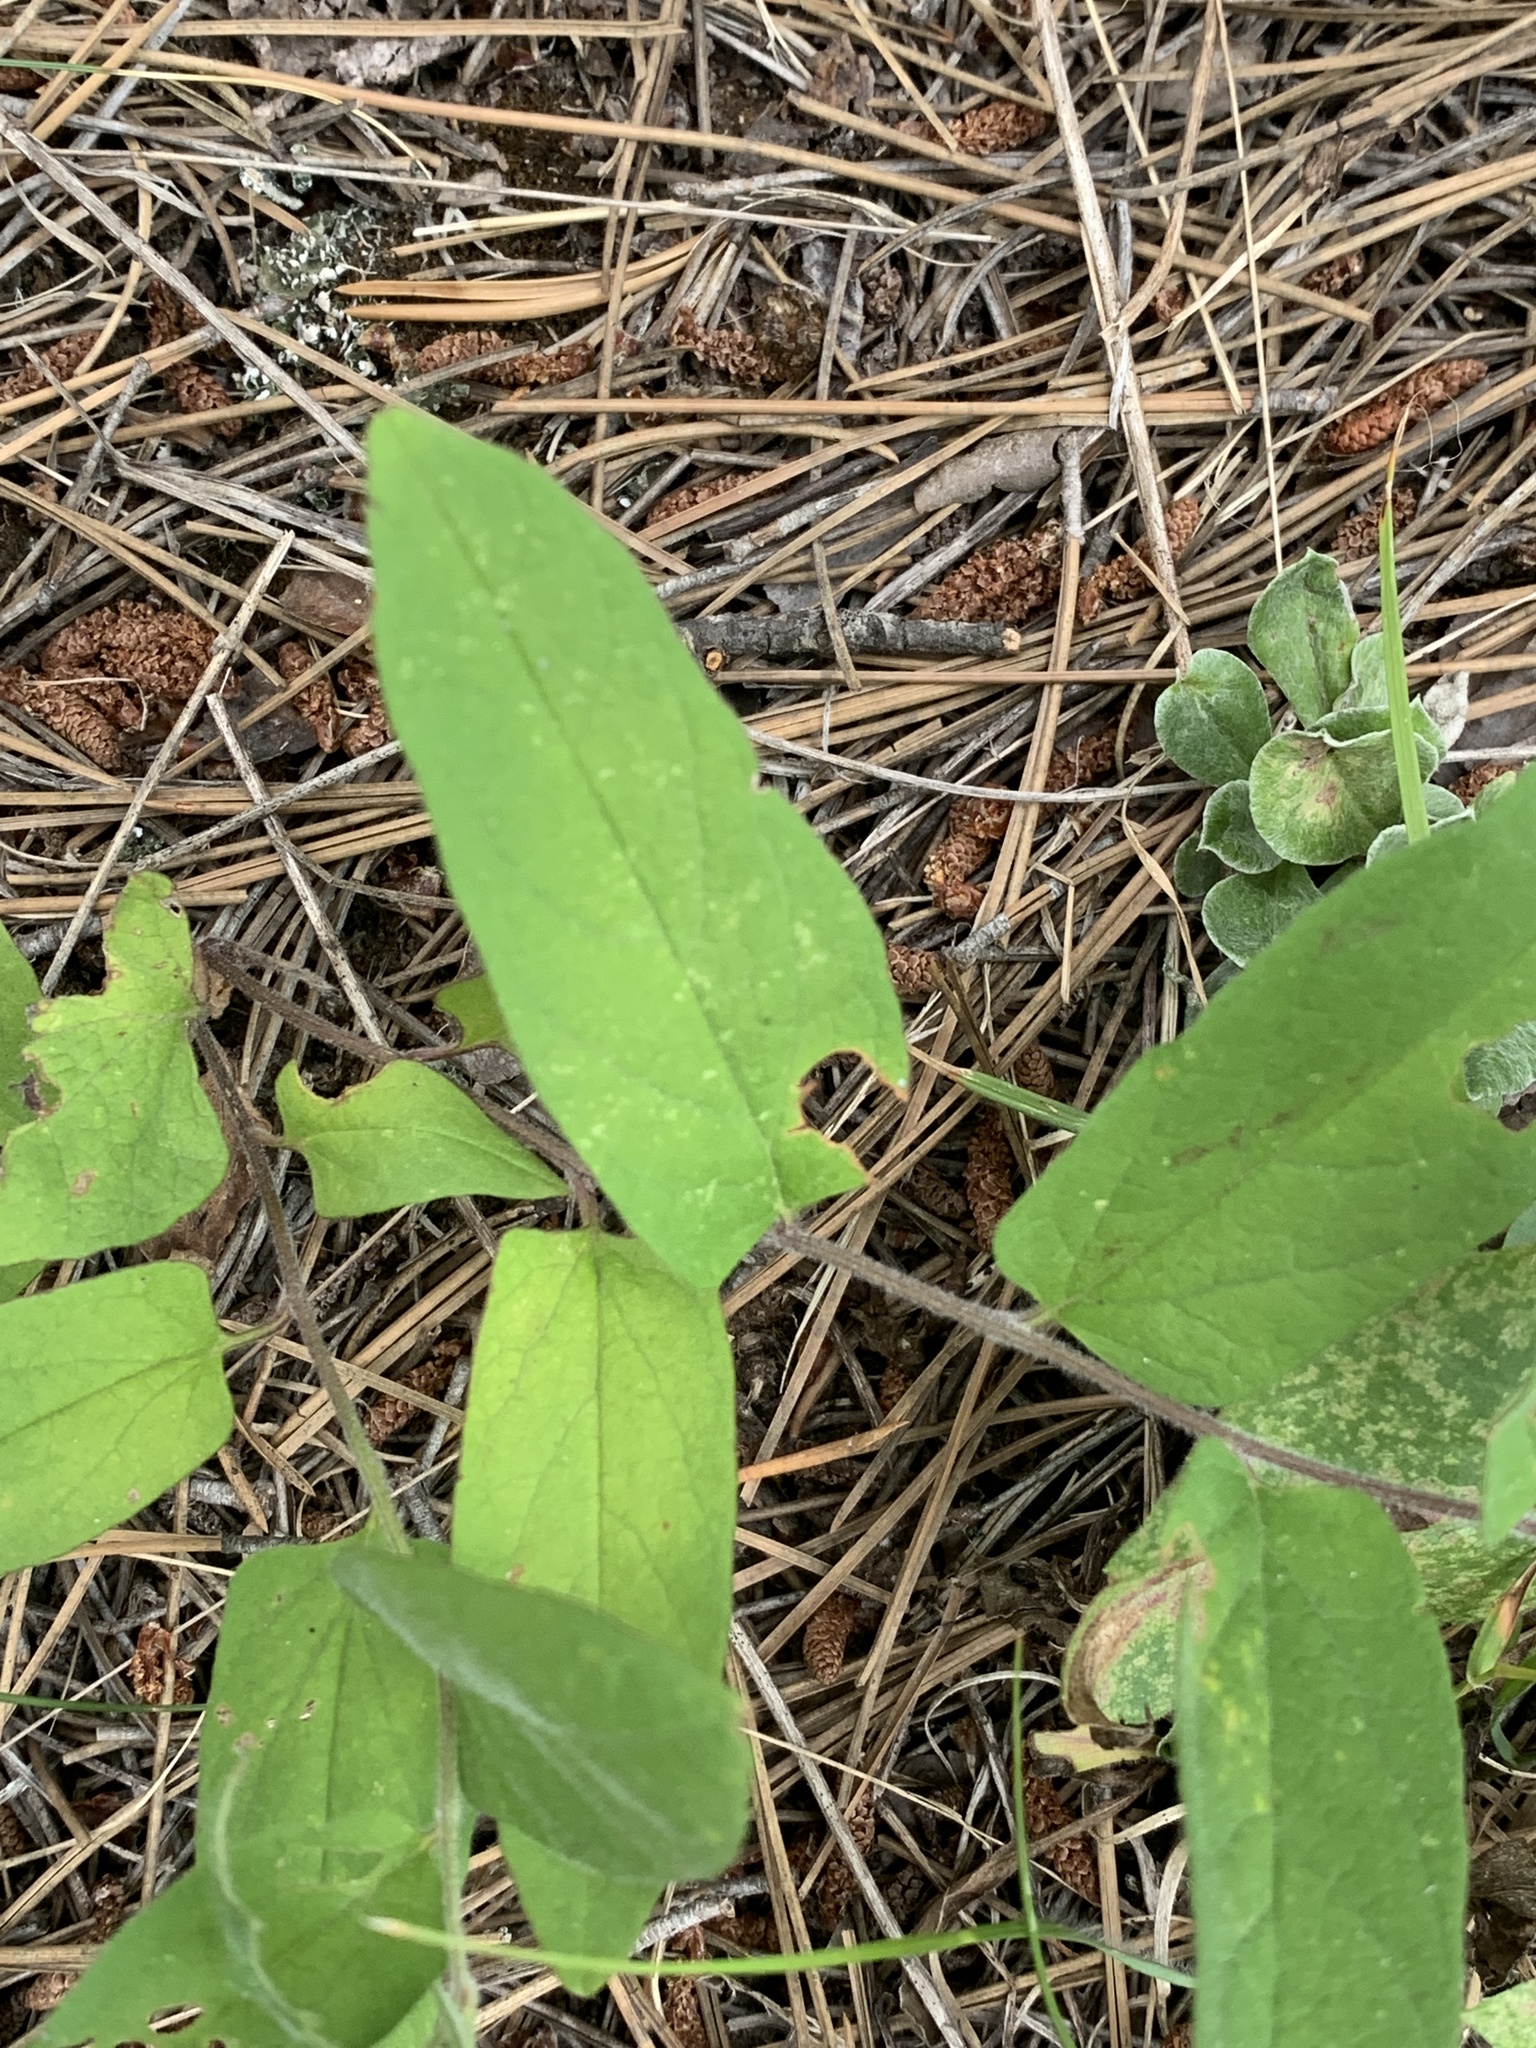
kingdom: Plantae
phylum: Tracheophyta
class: Magnoliopsida
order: Solanales
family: Convolvulaceae
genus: Calystegia
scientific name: Calystegia spithamaea
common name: Dwarf bindweed
